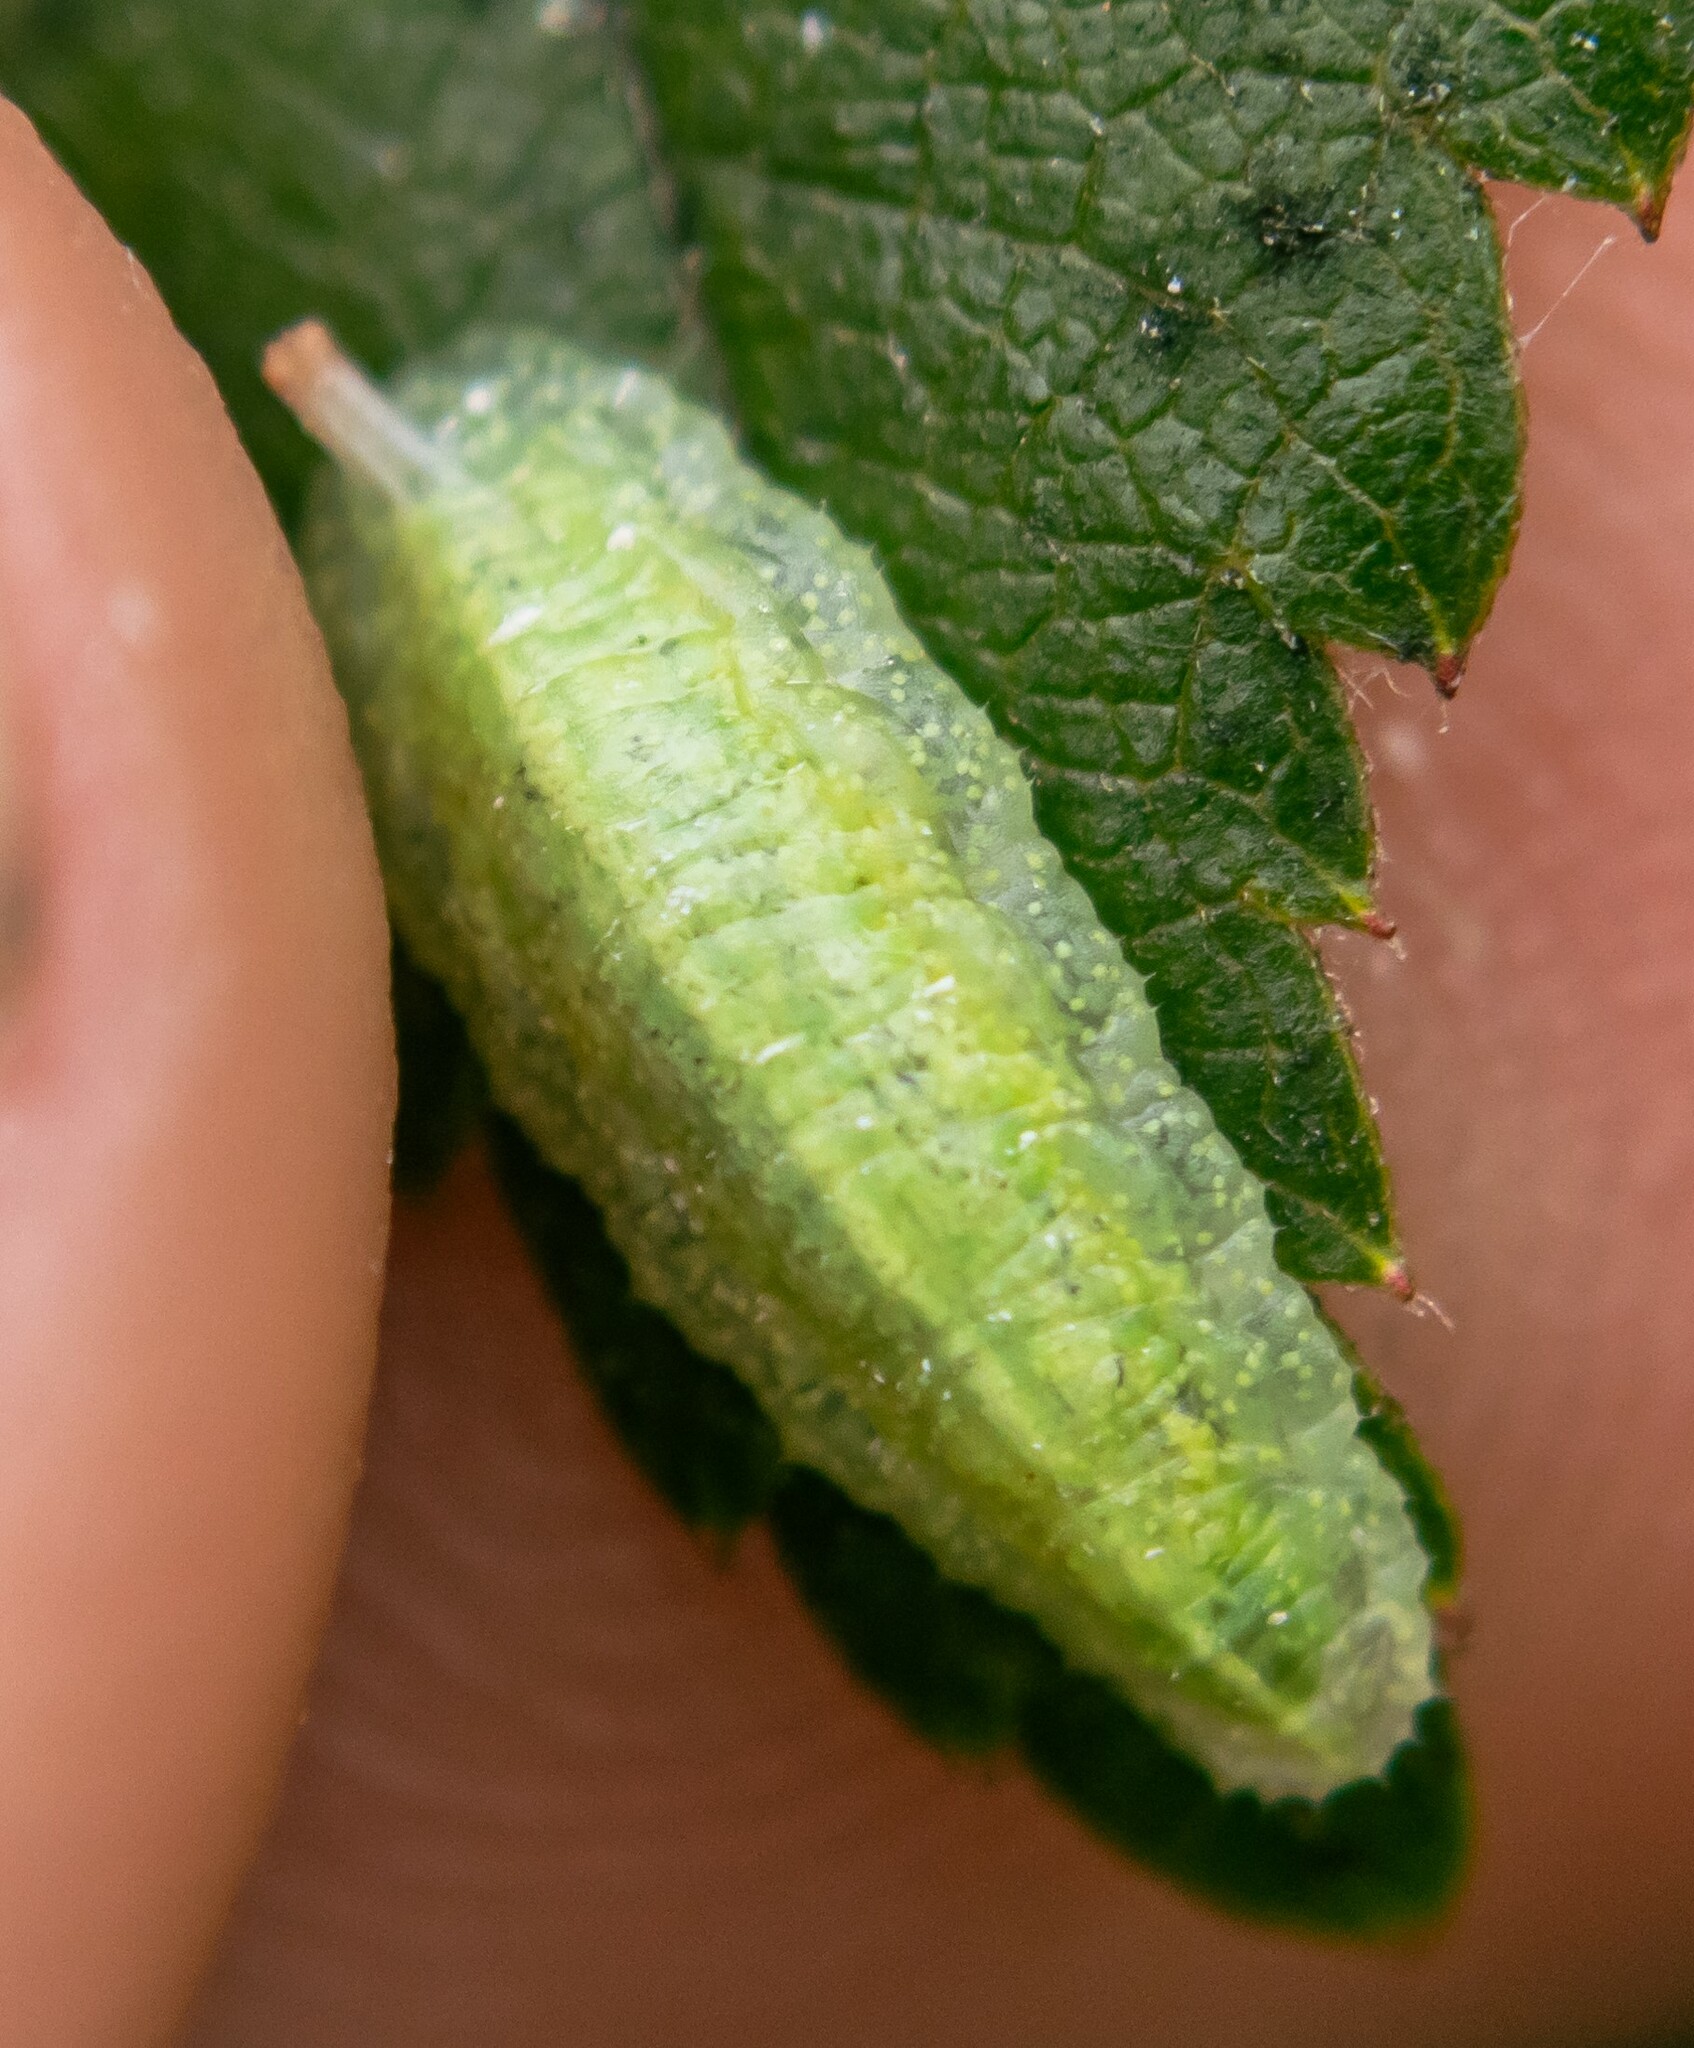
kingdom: Animalia
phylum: Arthropoda
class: Insecta
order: Diptera
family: Syrphidae
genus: Epistrophe
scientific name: Epistrophe eligans
